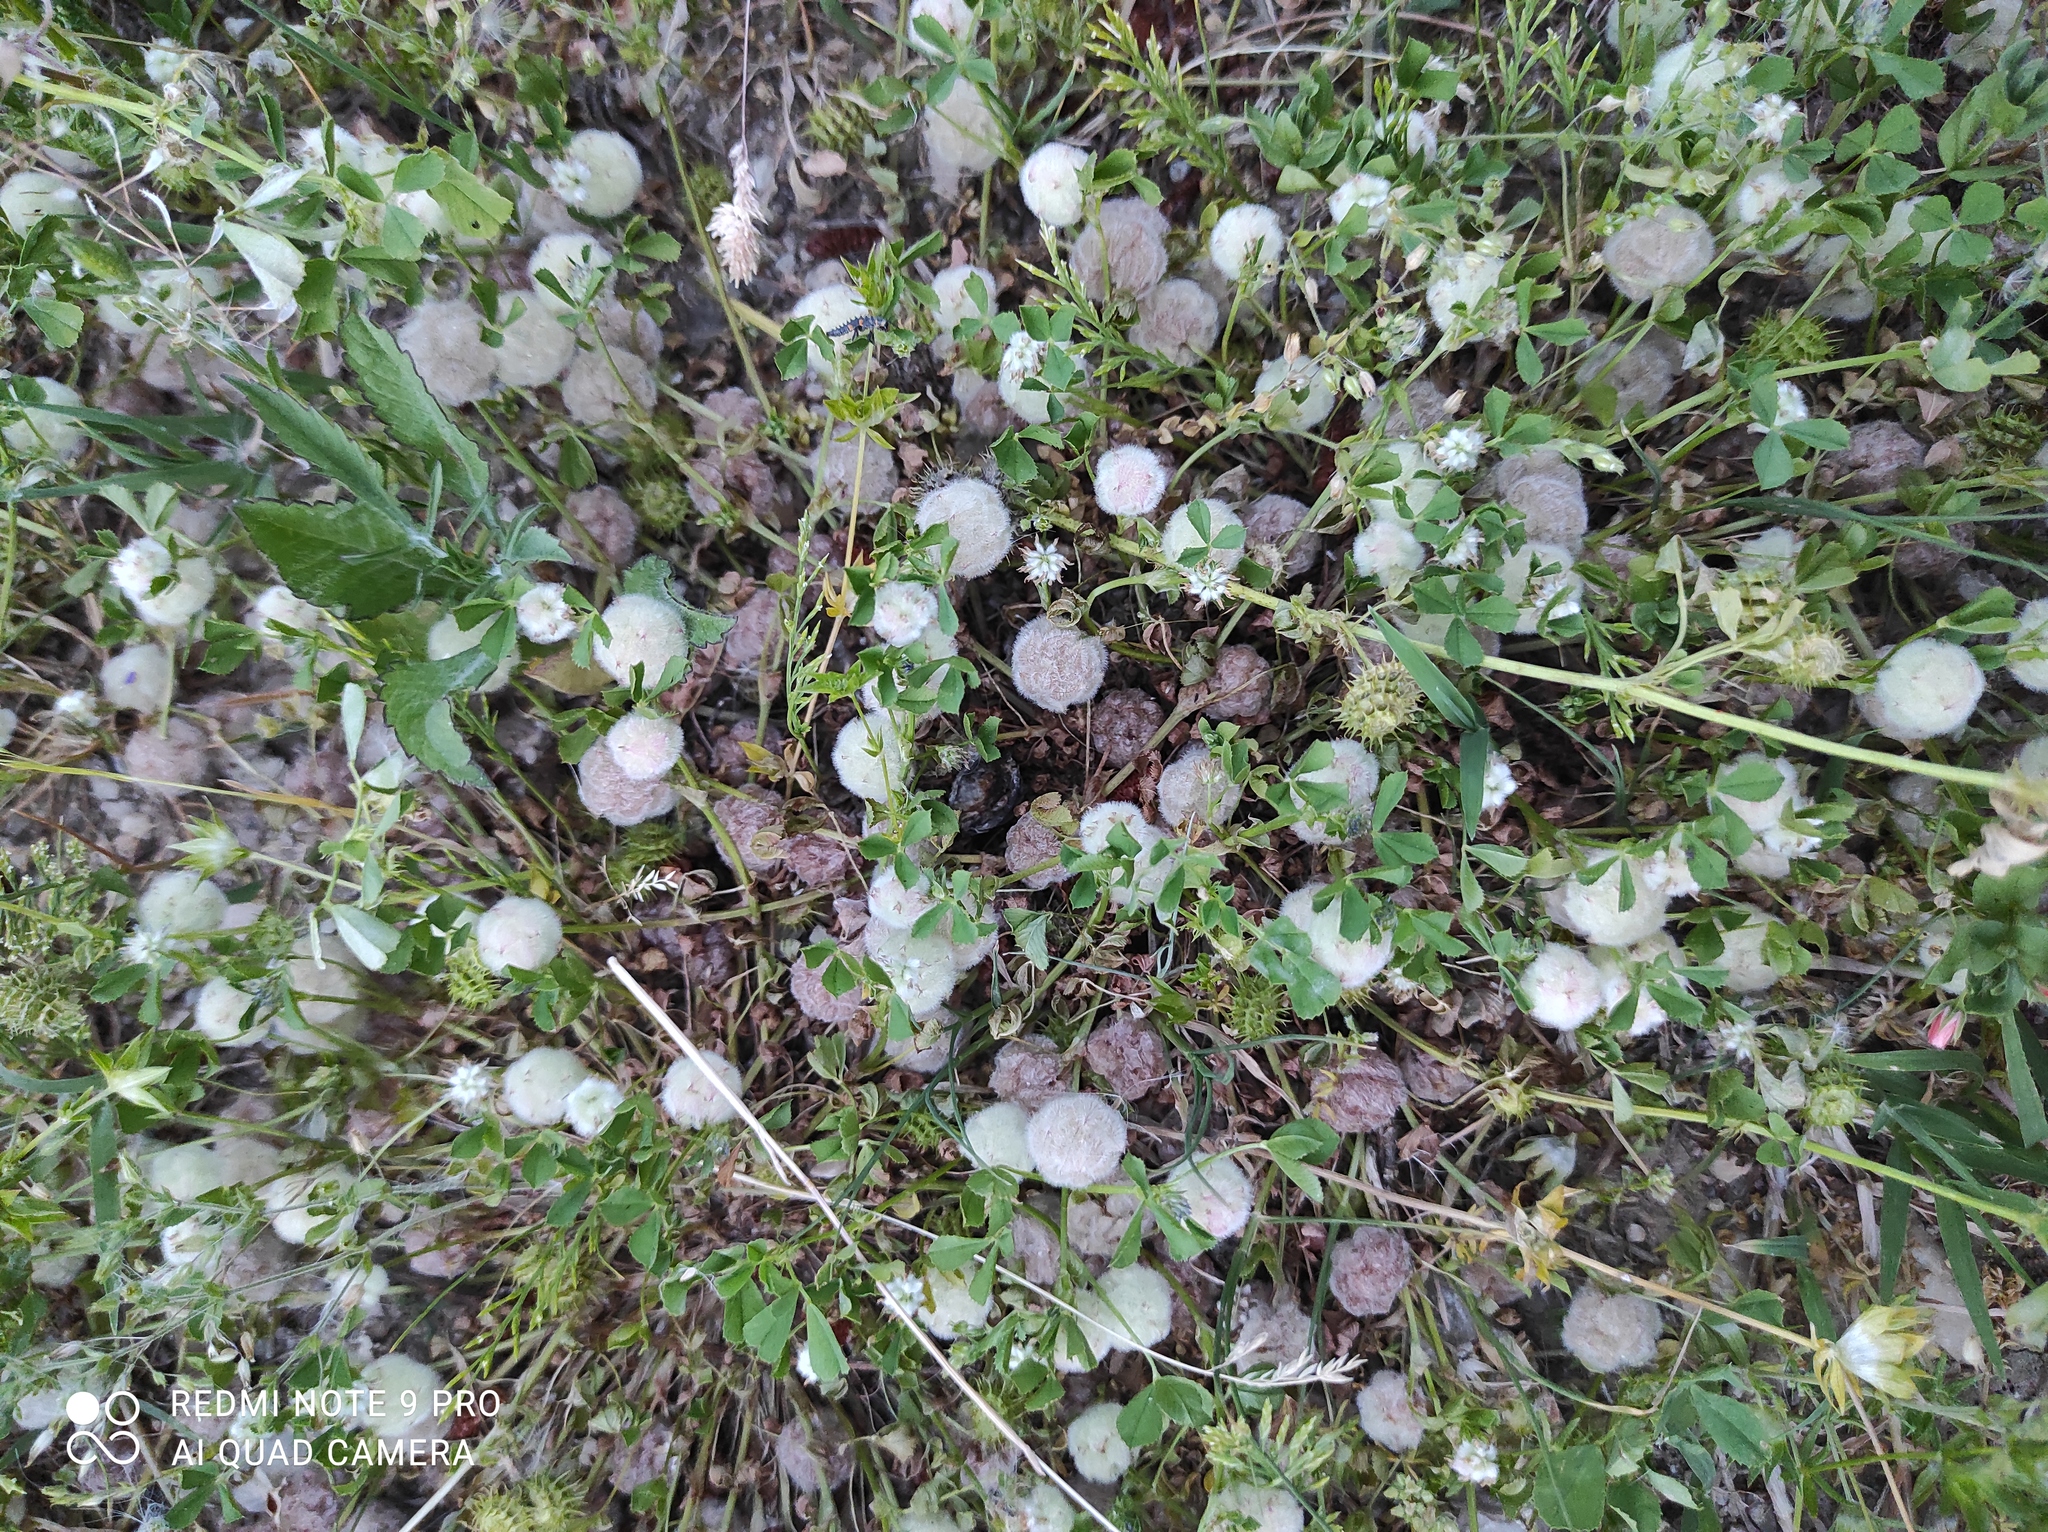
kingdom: Plantae
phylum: Tracheophyta
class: Magnoliopsida
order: Fabales
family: Fabaceae
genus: Trifolium
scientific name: Trifolium tomentosum
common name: Woolly clover
